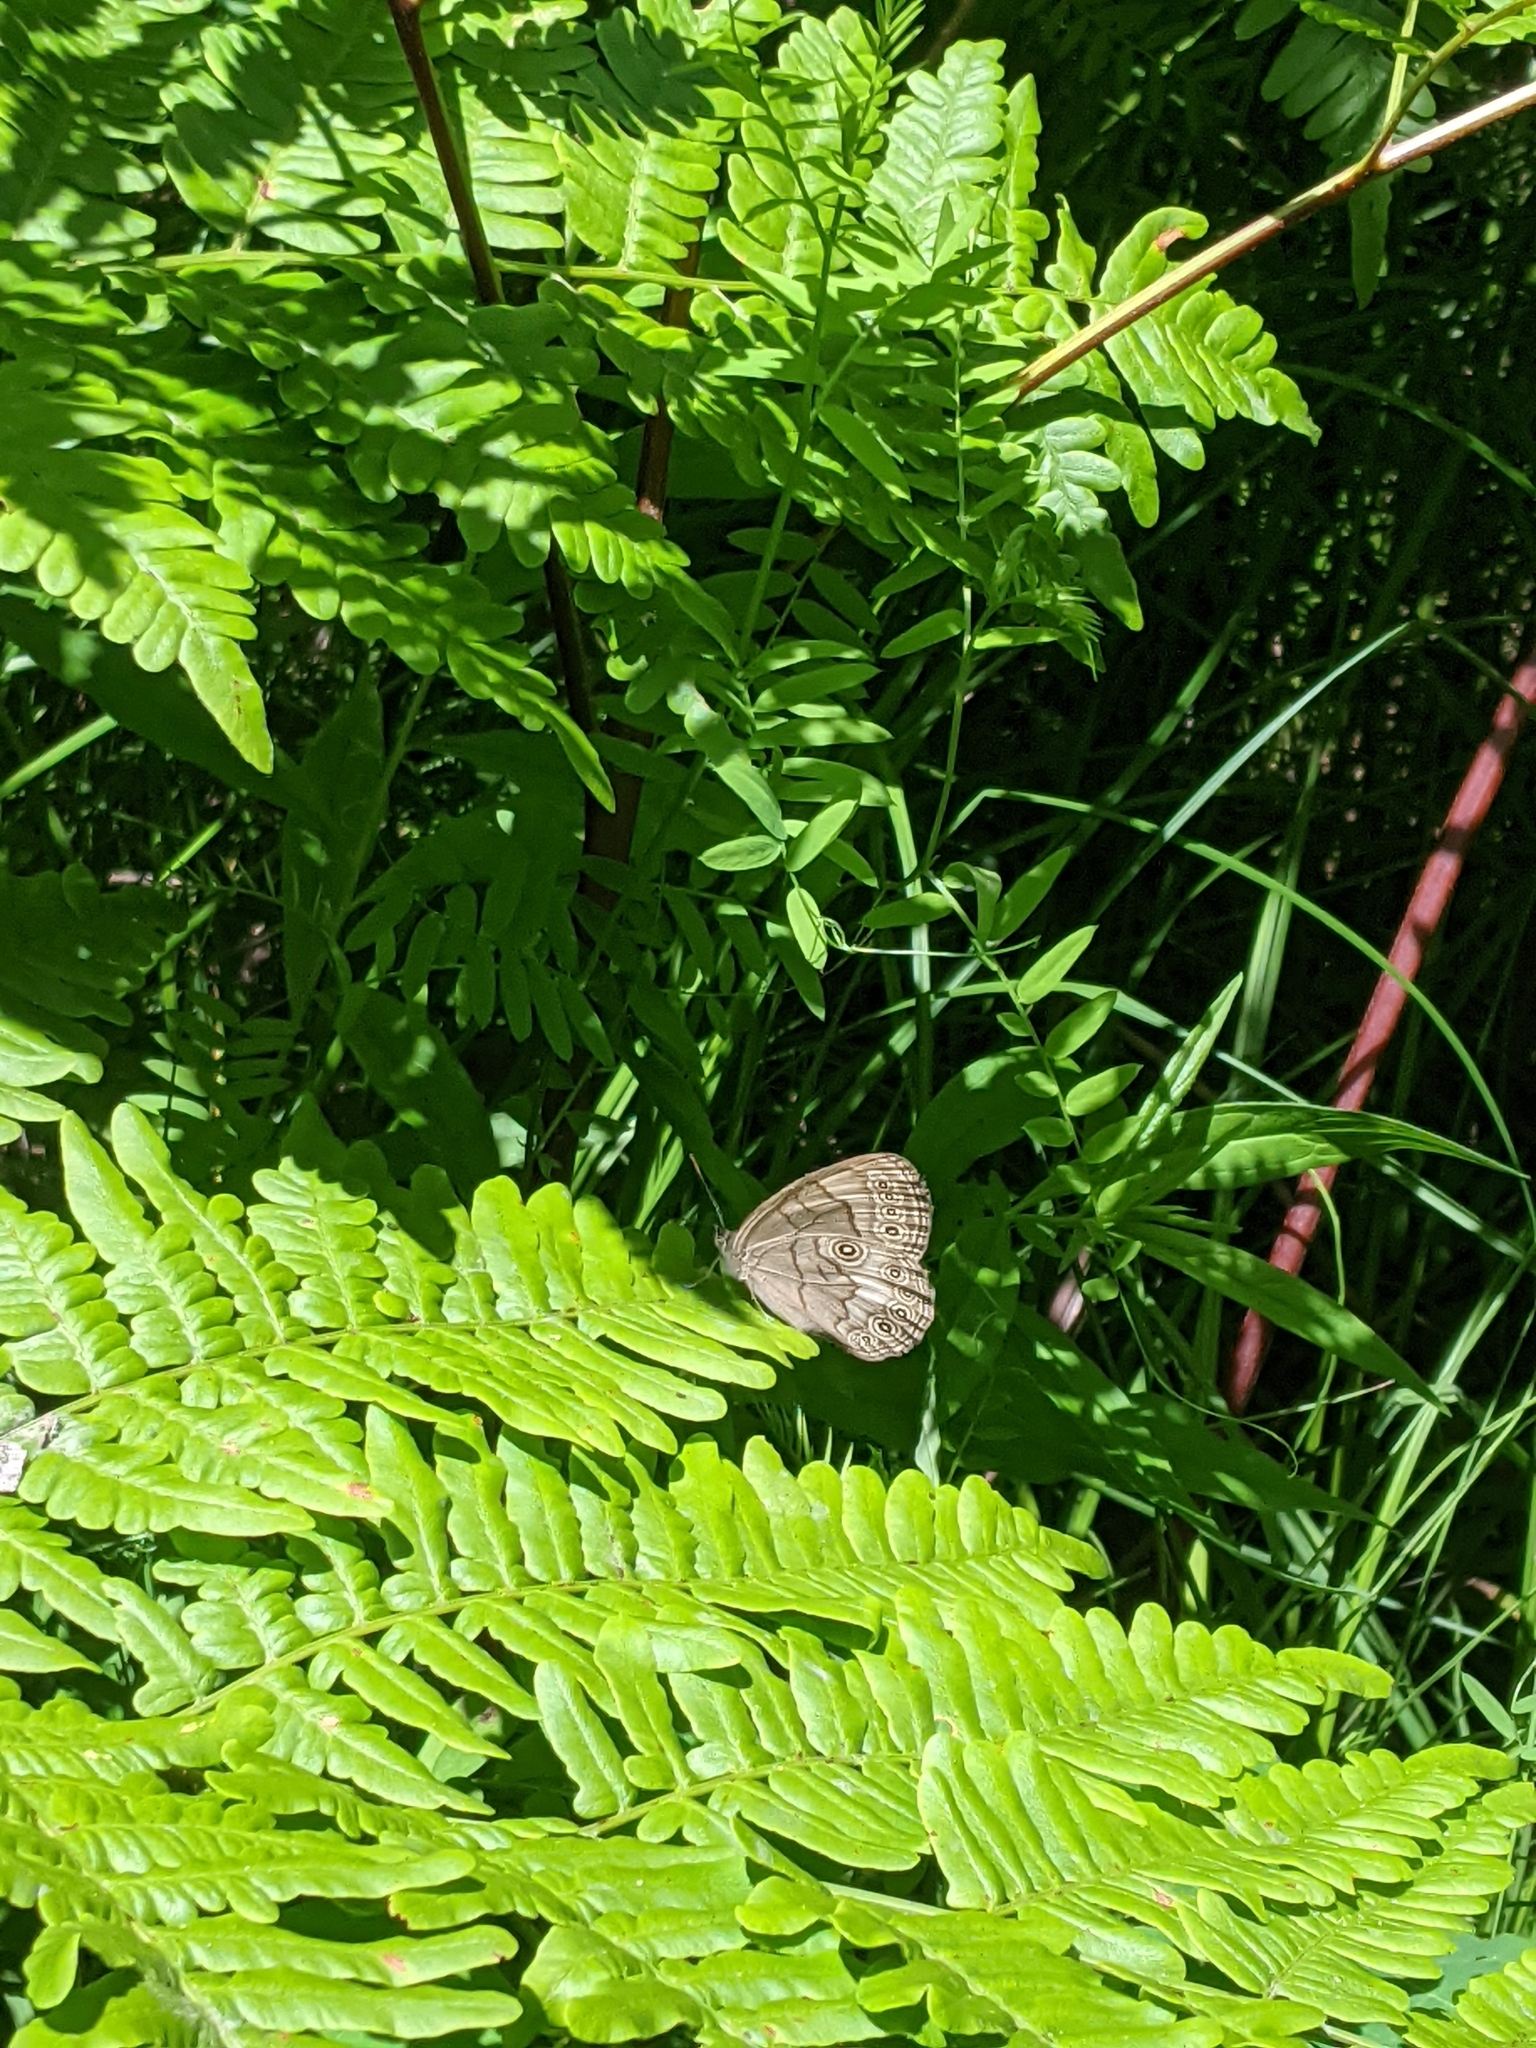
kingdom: Animalia
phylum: Arthropoda
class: Insecta
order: Lepidoptera
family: Nymphalidae
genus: Lethe
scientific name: Lethe eurydice
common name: Eyed brown
